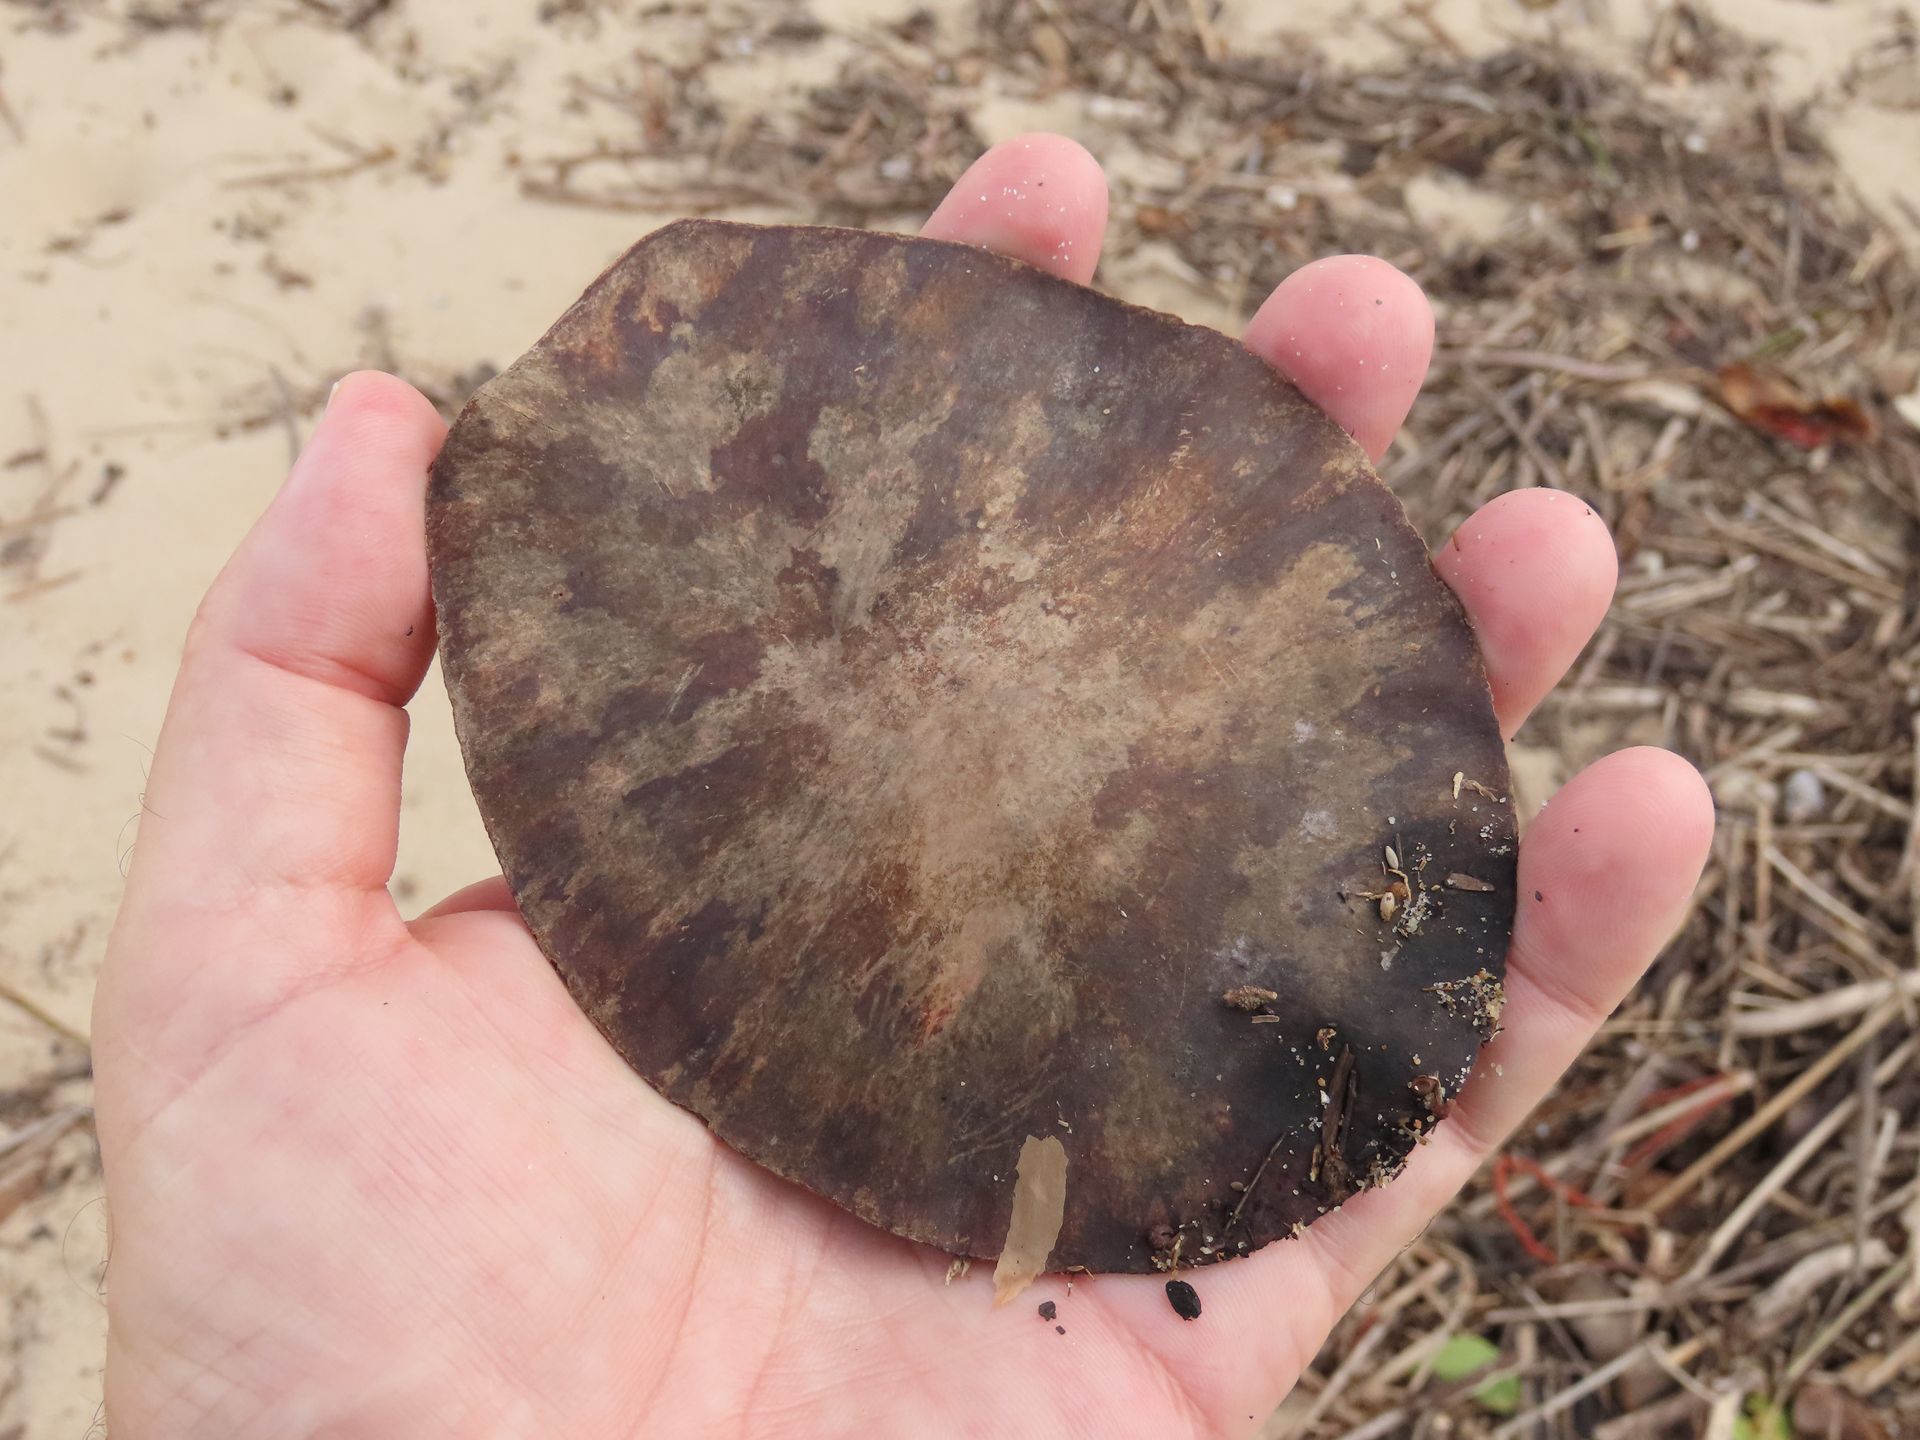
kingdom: Plantae
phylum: Tracheophyta
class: Magnoliopsida
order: Fabales
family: Fabaceae
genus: Entada
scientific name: Entada phaseoloides
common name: Matchbox-bean
